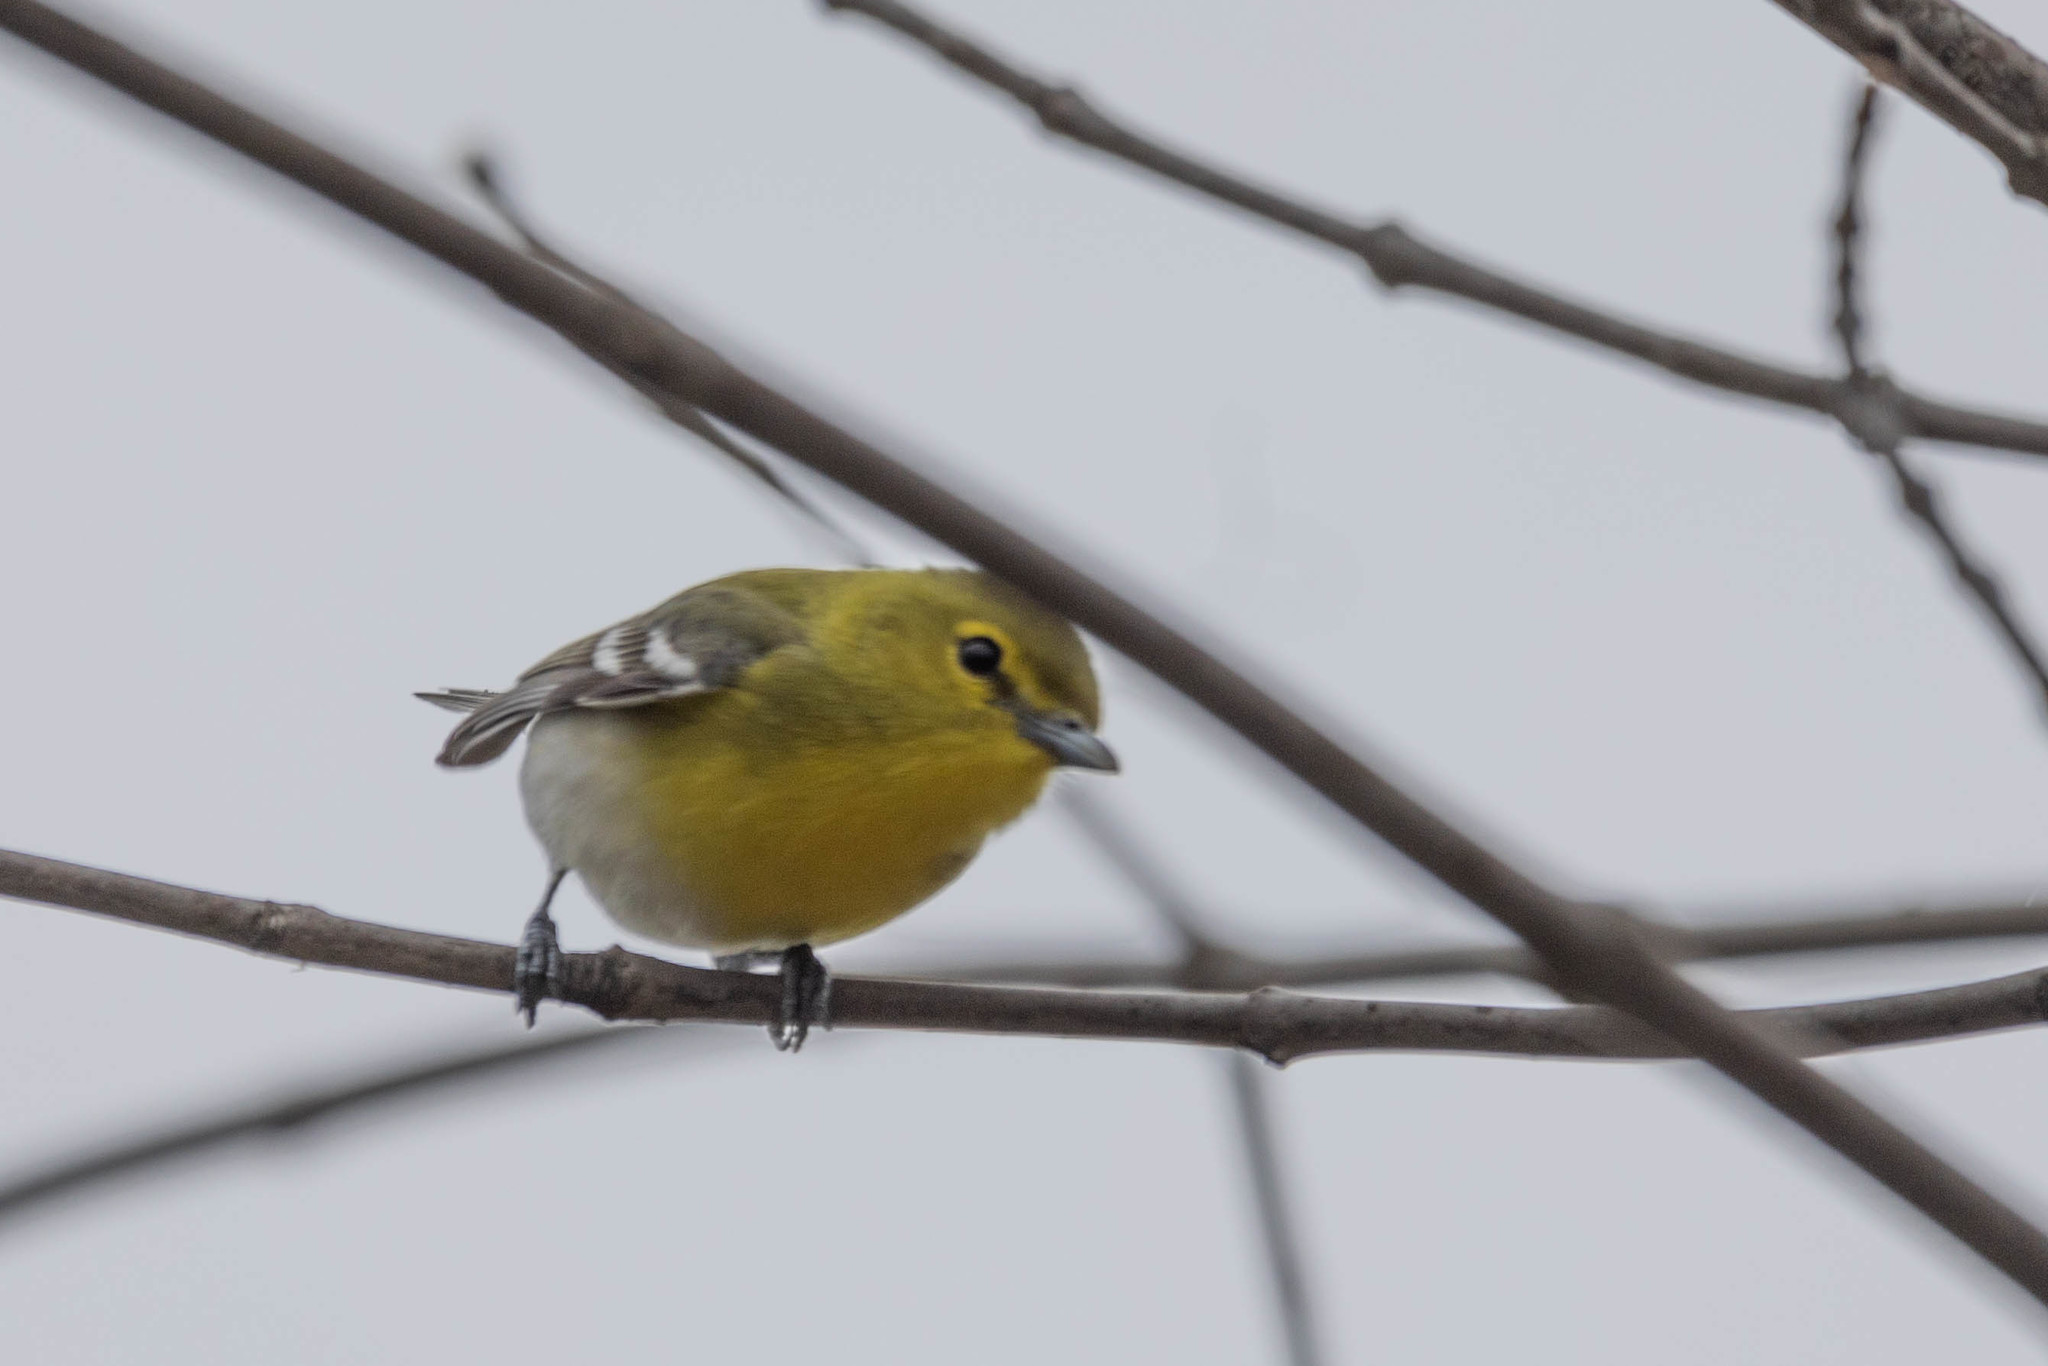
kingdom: Animalia
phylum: Chordata
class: Aves
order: Passeriformes
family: Vireonidae
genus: Vireo
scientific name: Vireo flavifrons
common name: Yellow-throated vireo
